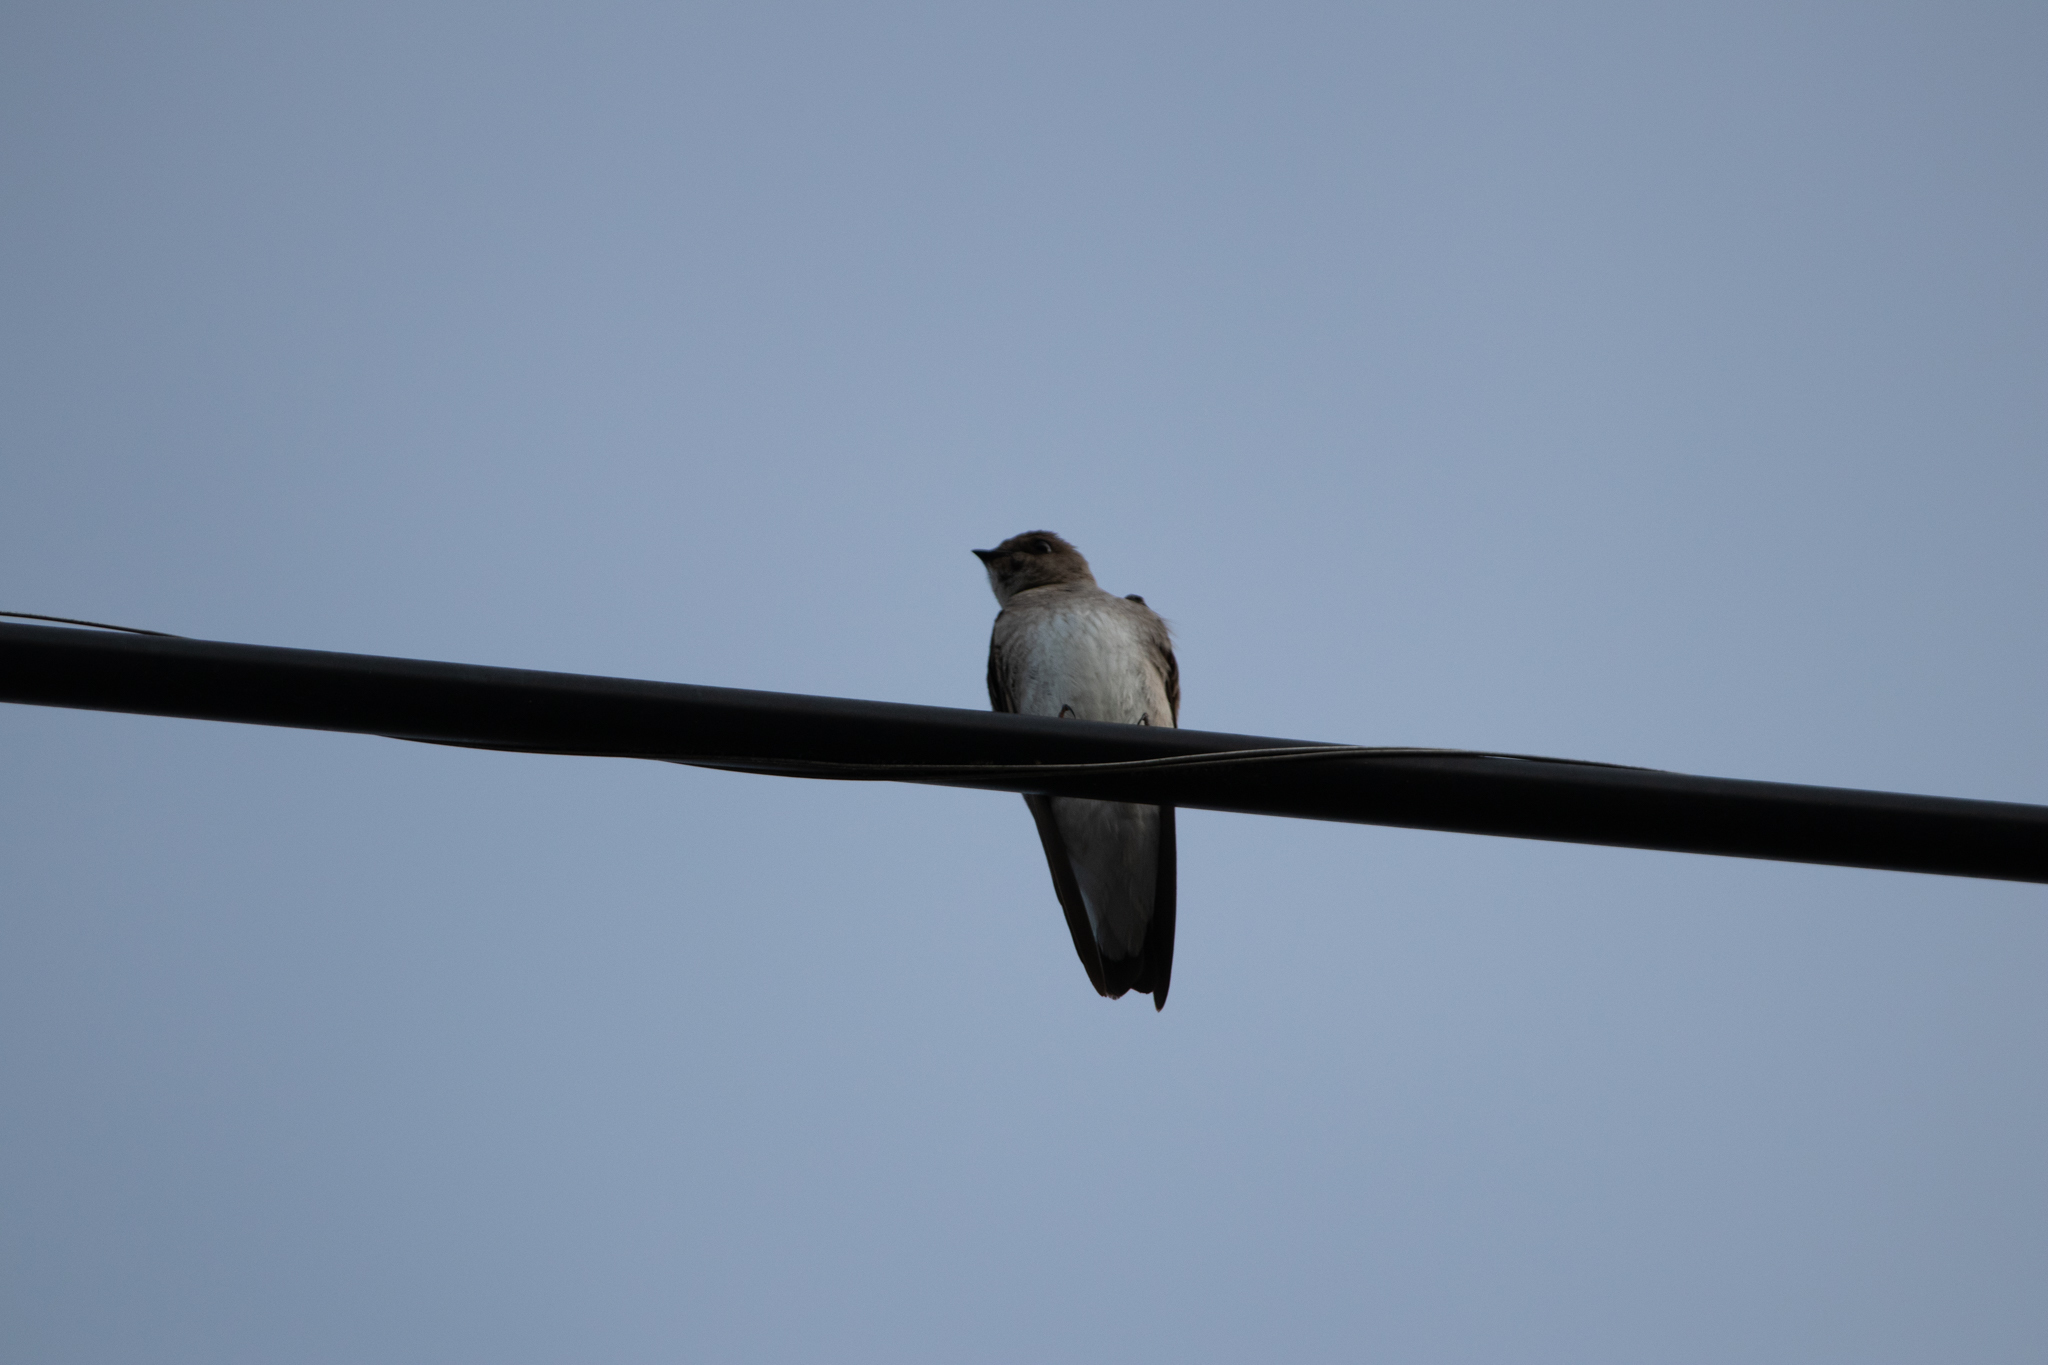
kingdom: Animalia
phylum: Chordata
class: Aves
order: Passeriformes
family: Hirundinidae
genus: Stelgidopteryx
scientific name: Stelgidopteryx serripennis
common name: Northern rough-winged swallow
